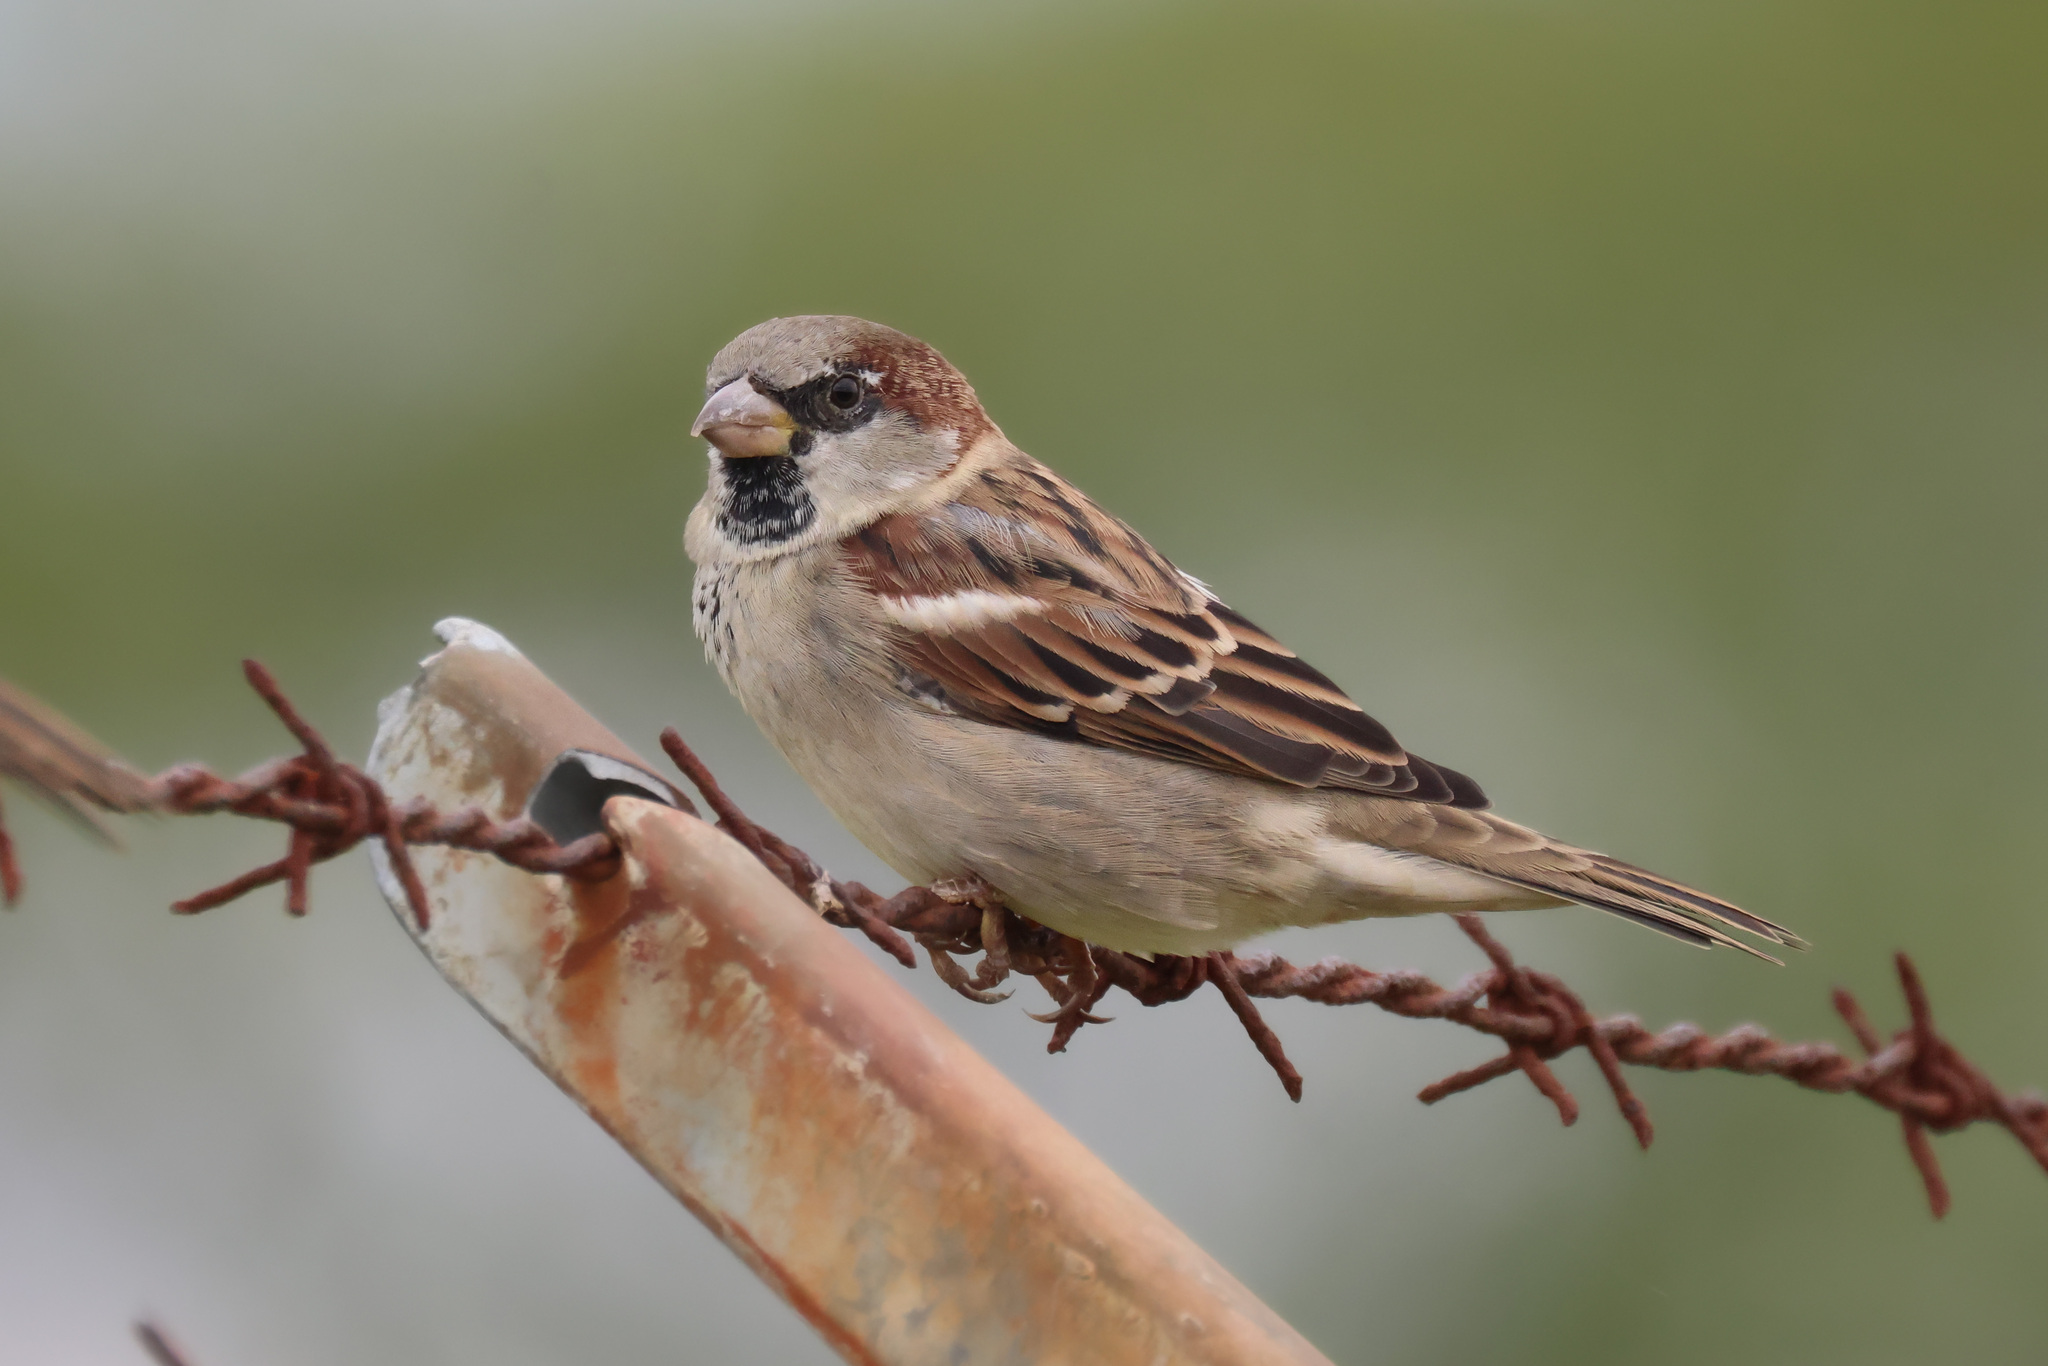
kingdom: Animalia
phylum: Chordata
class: Aves
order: Passeriformes
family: Passeridae
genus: Passer
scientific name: Passer domesticus
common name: House sparrow
